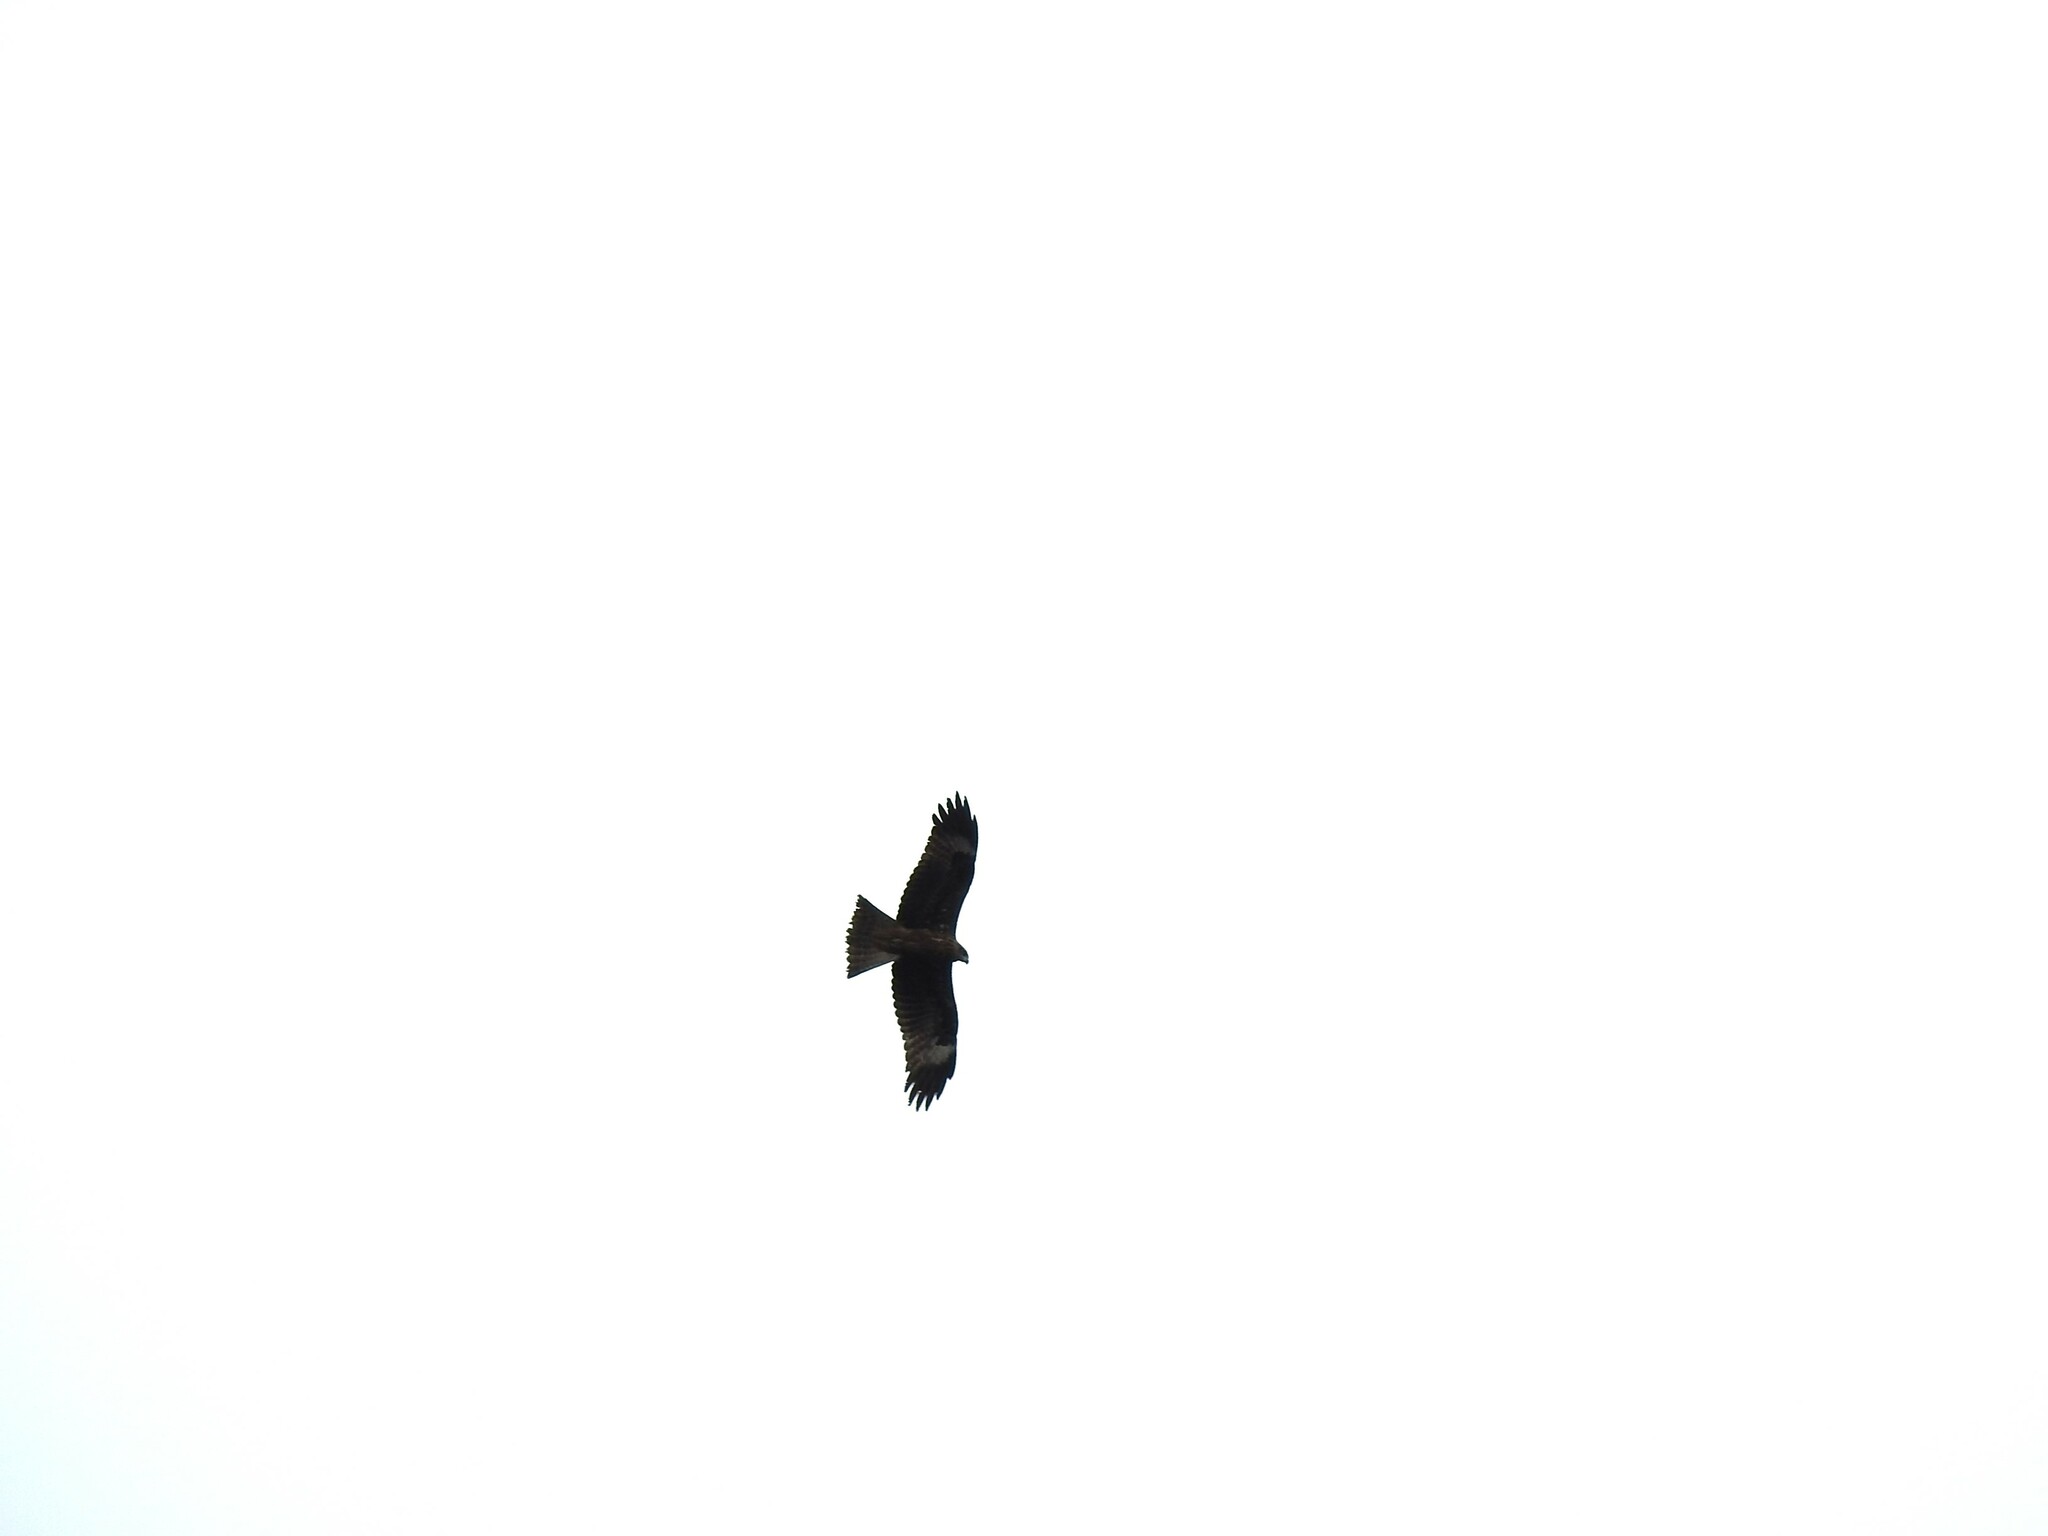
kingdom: Animalia
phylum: Chordata
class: Aves
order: Accipitriformes
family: Accipitridae
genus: Milvus
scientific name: Milvus migrans
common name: Black kite
